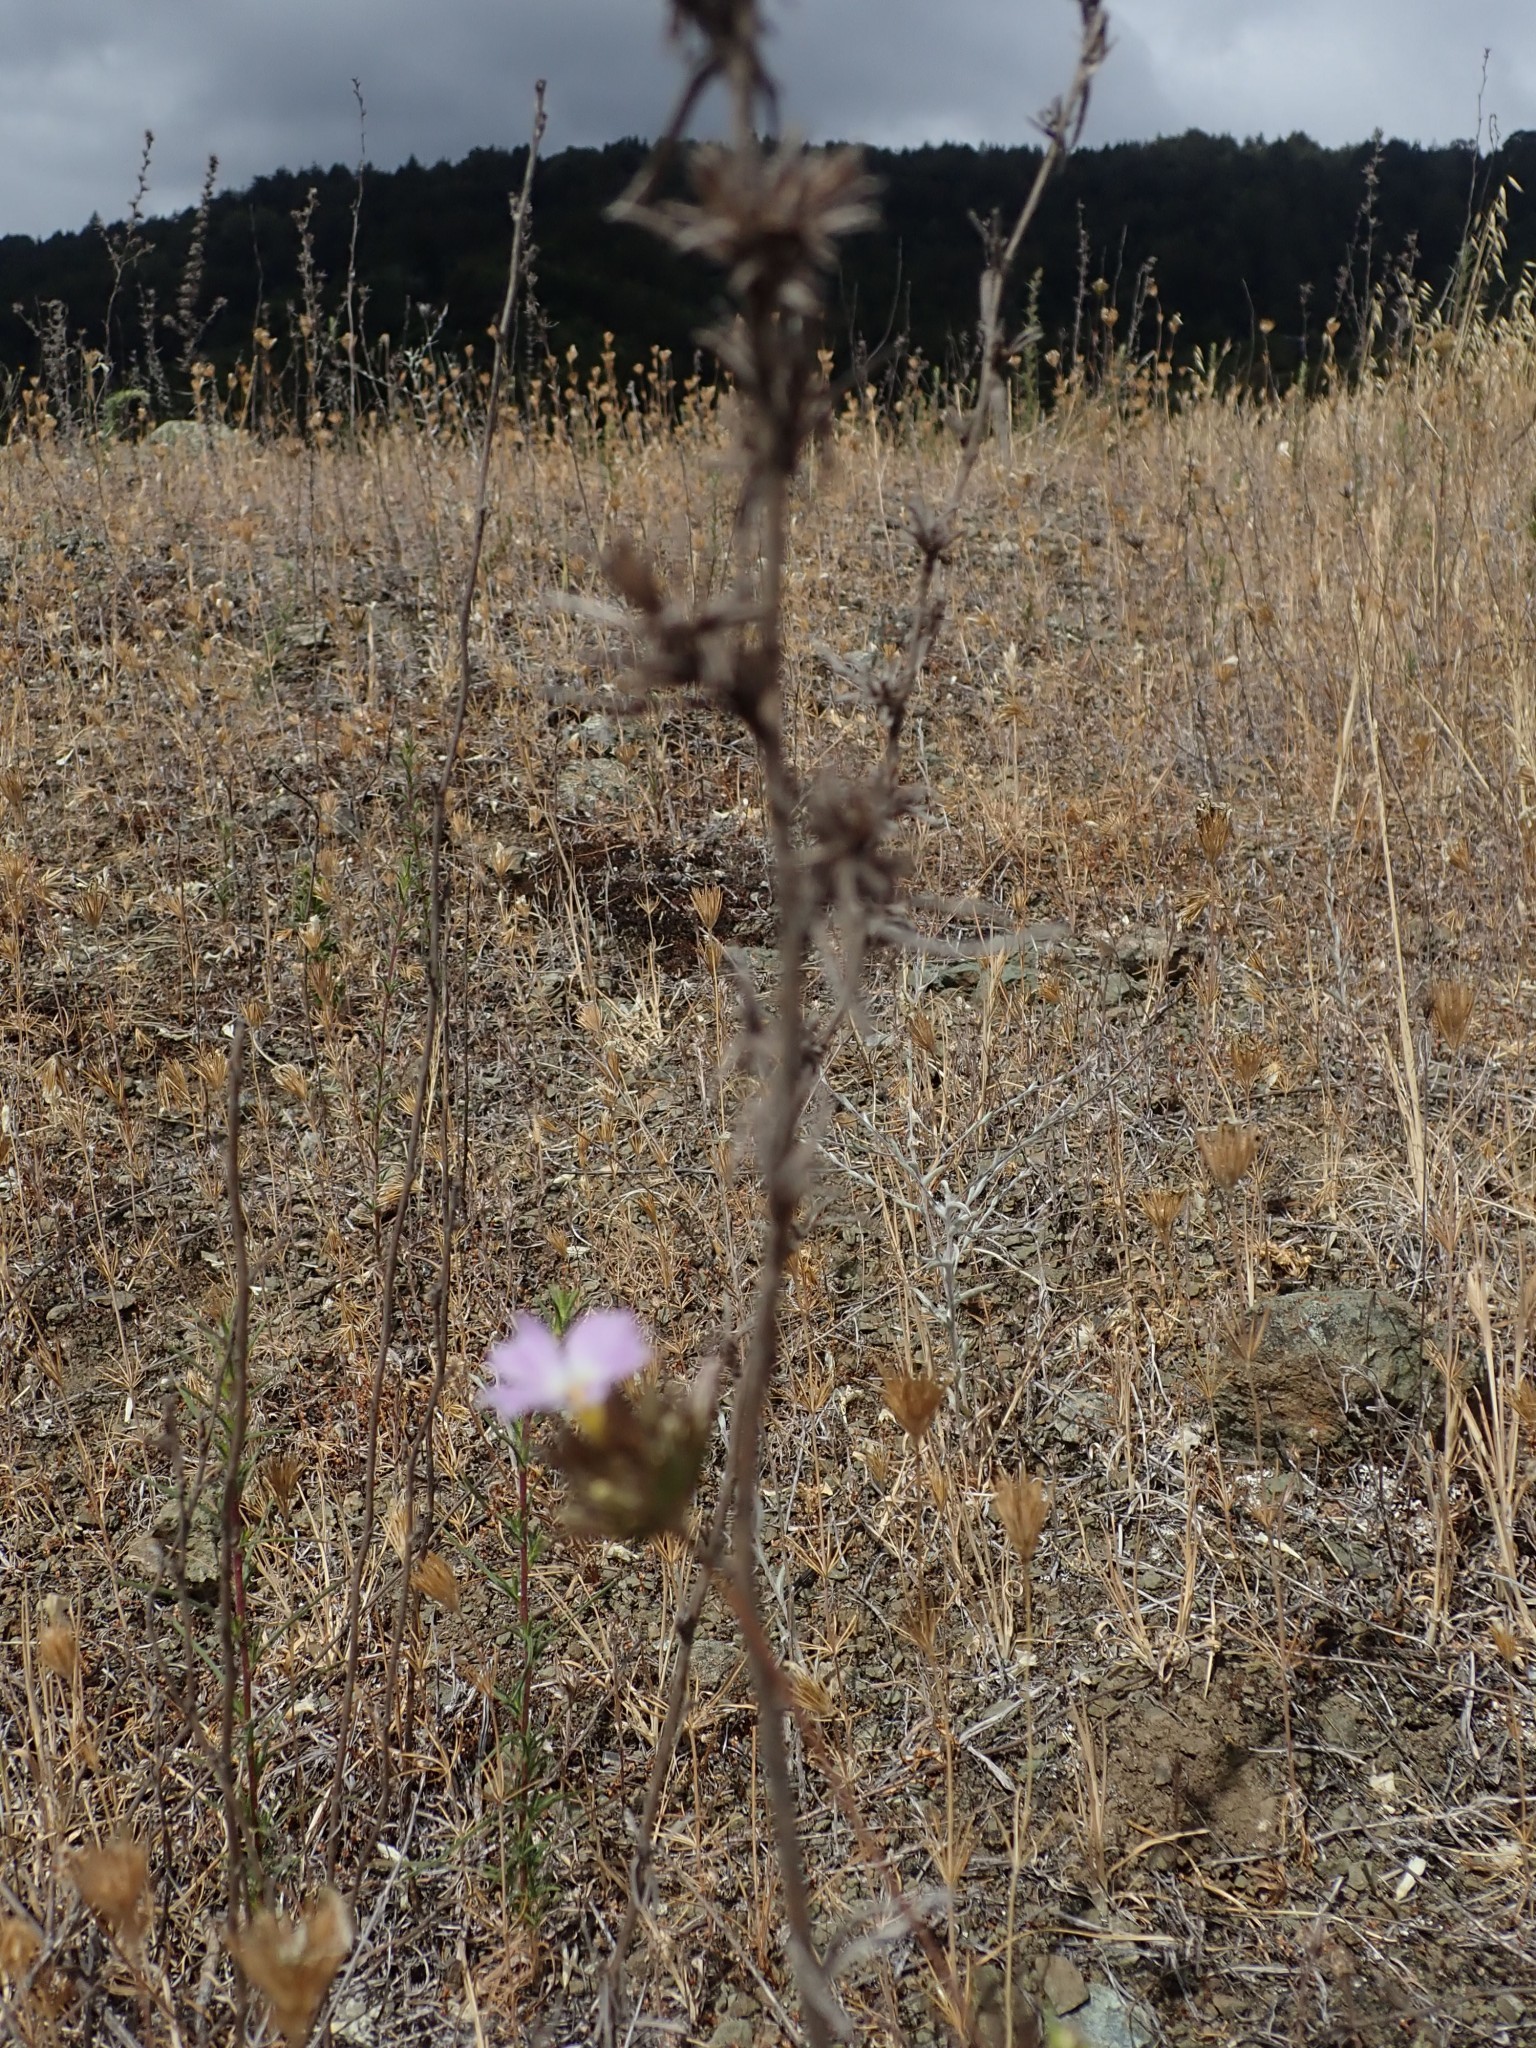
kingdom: Plantae
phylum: Tracheophyta
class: Magnoliopsida
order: Ericales
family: Polemoniaceae
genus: Leptosiphon
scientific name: Leptosiphon grandiflorus
